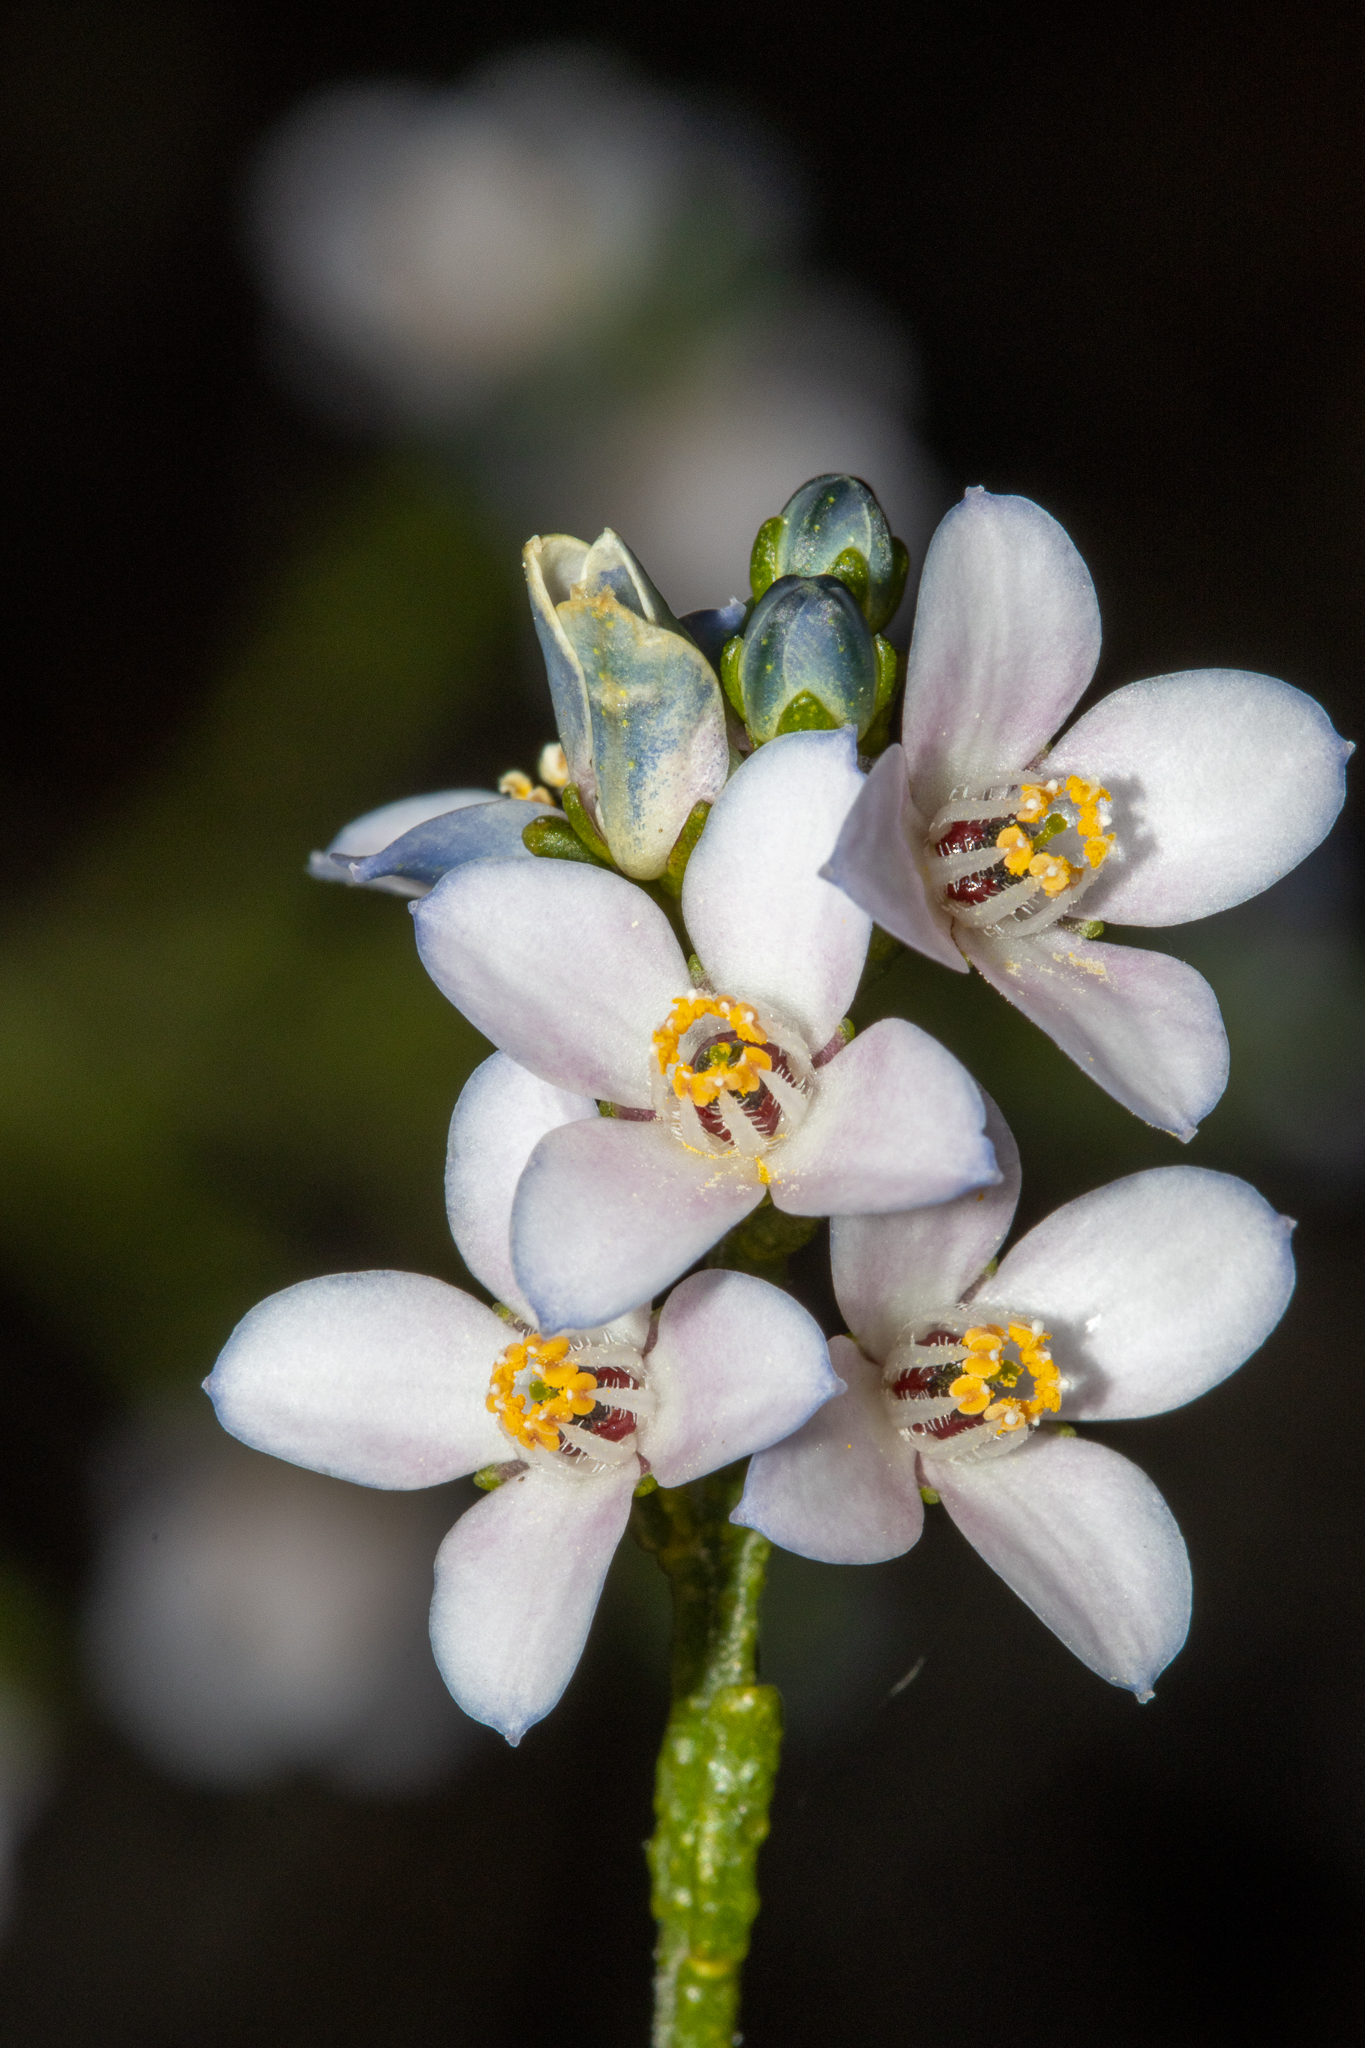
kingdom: Plantae
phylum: Tracheophyta
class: Magnoliopsida
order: Sapindales
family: Rutaceae
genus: Cyanothamnus
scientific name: Cyanothamnus coerulescens
